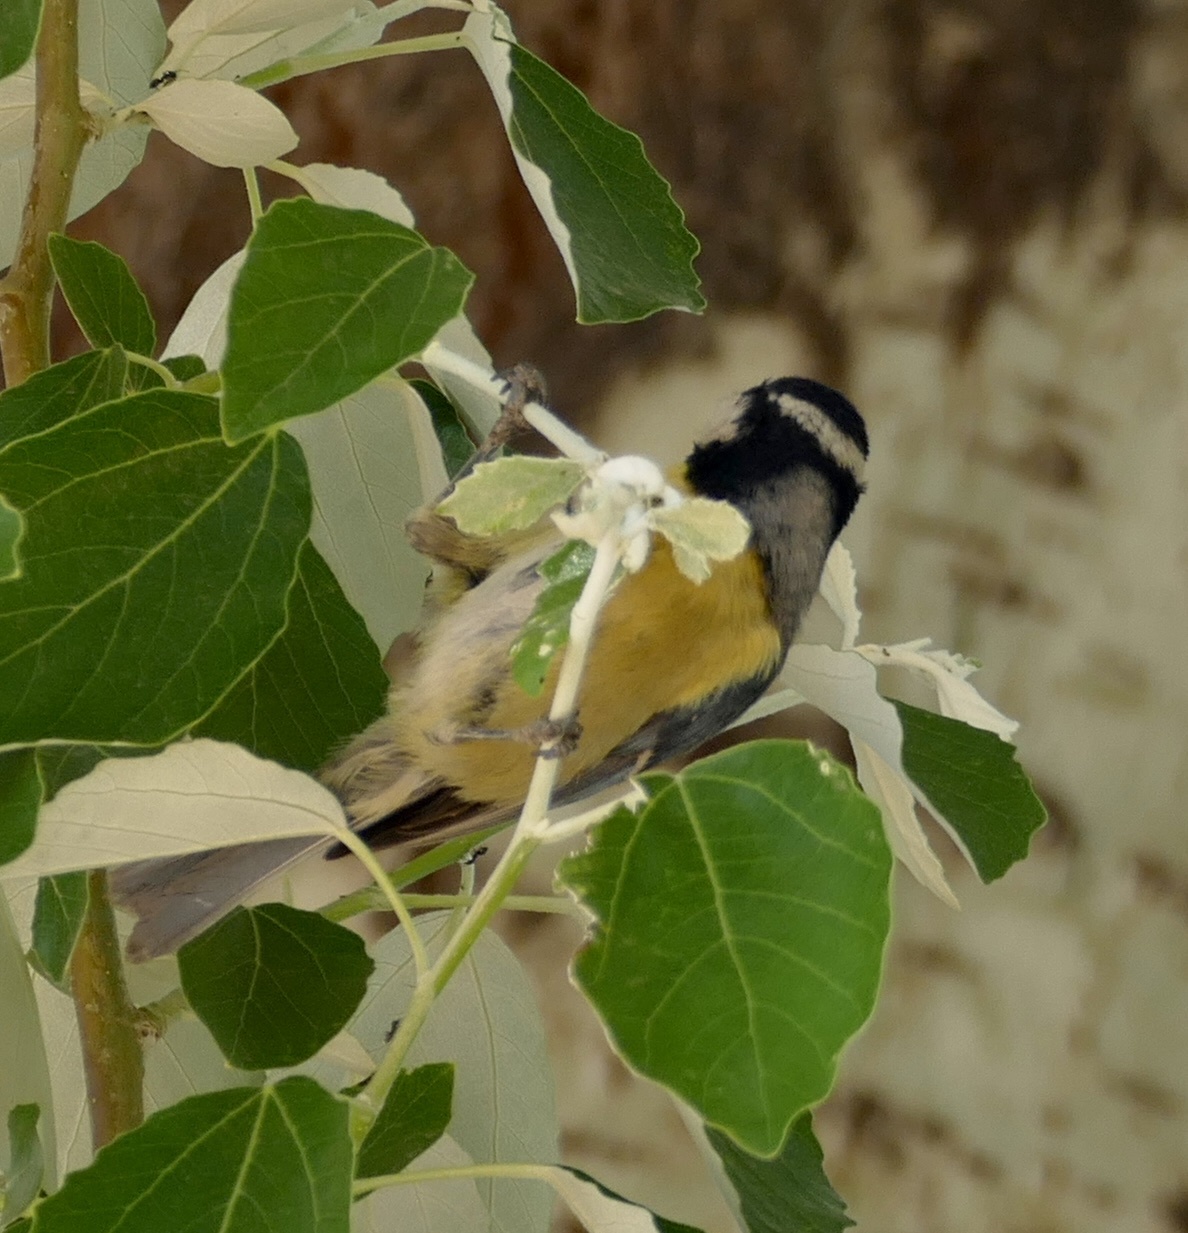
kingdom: Animalia
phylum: Chordata
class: Aves
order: Passeriformes
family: Paridae
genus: Cyanistes
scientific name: Cyanistes teneriffae
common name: African blue tit
